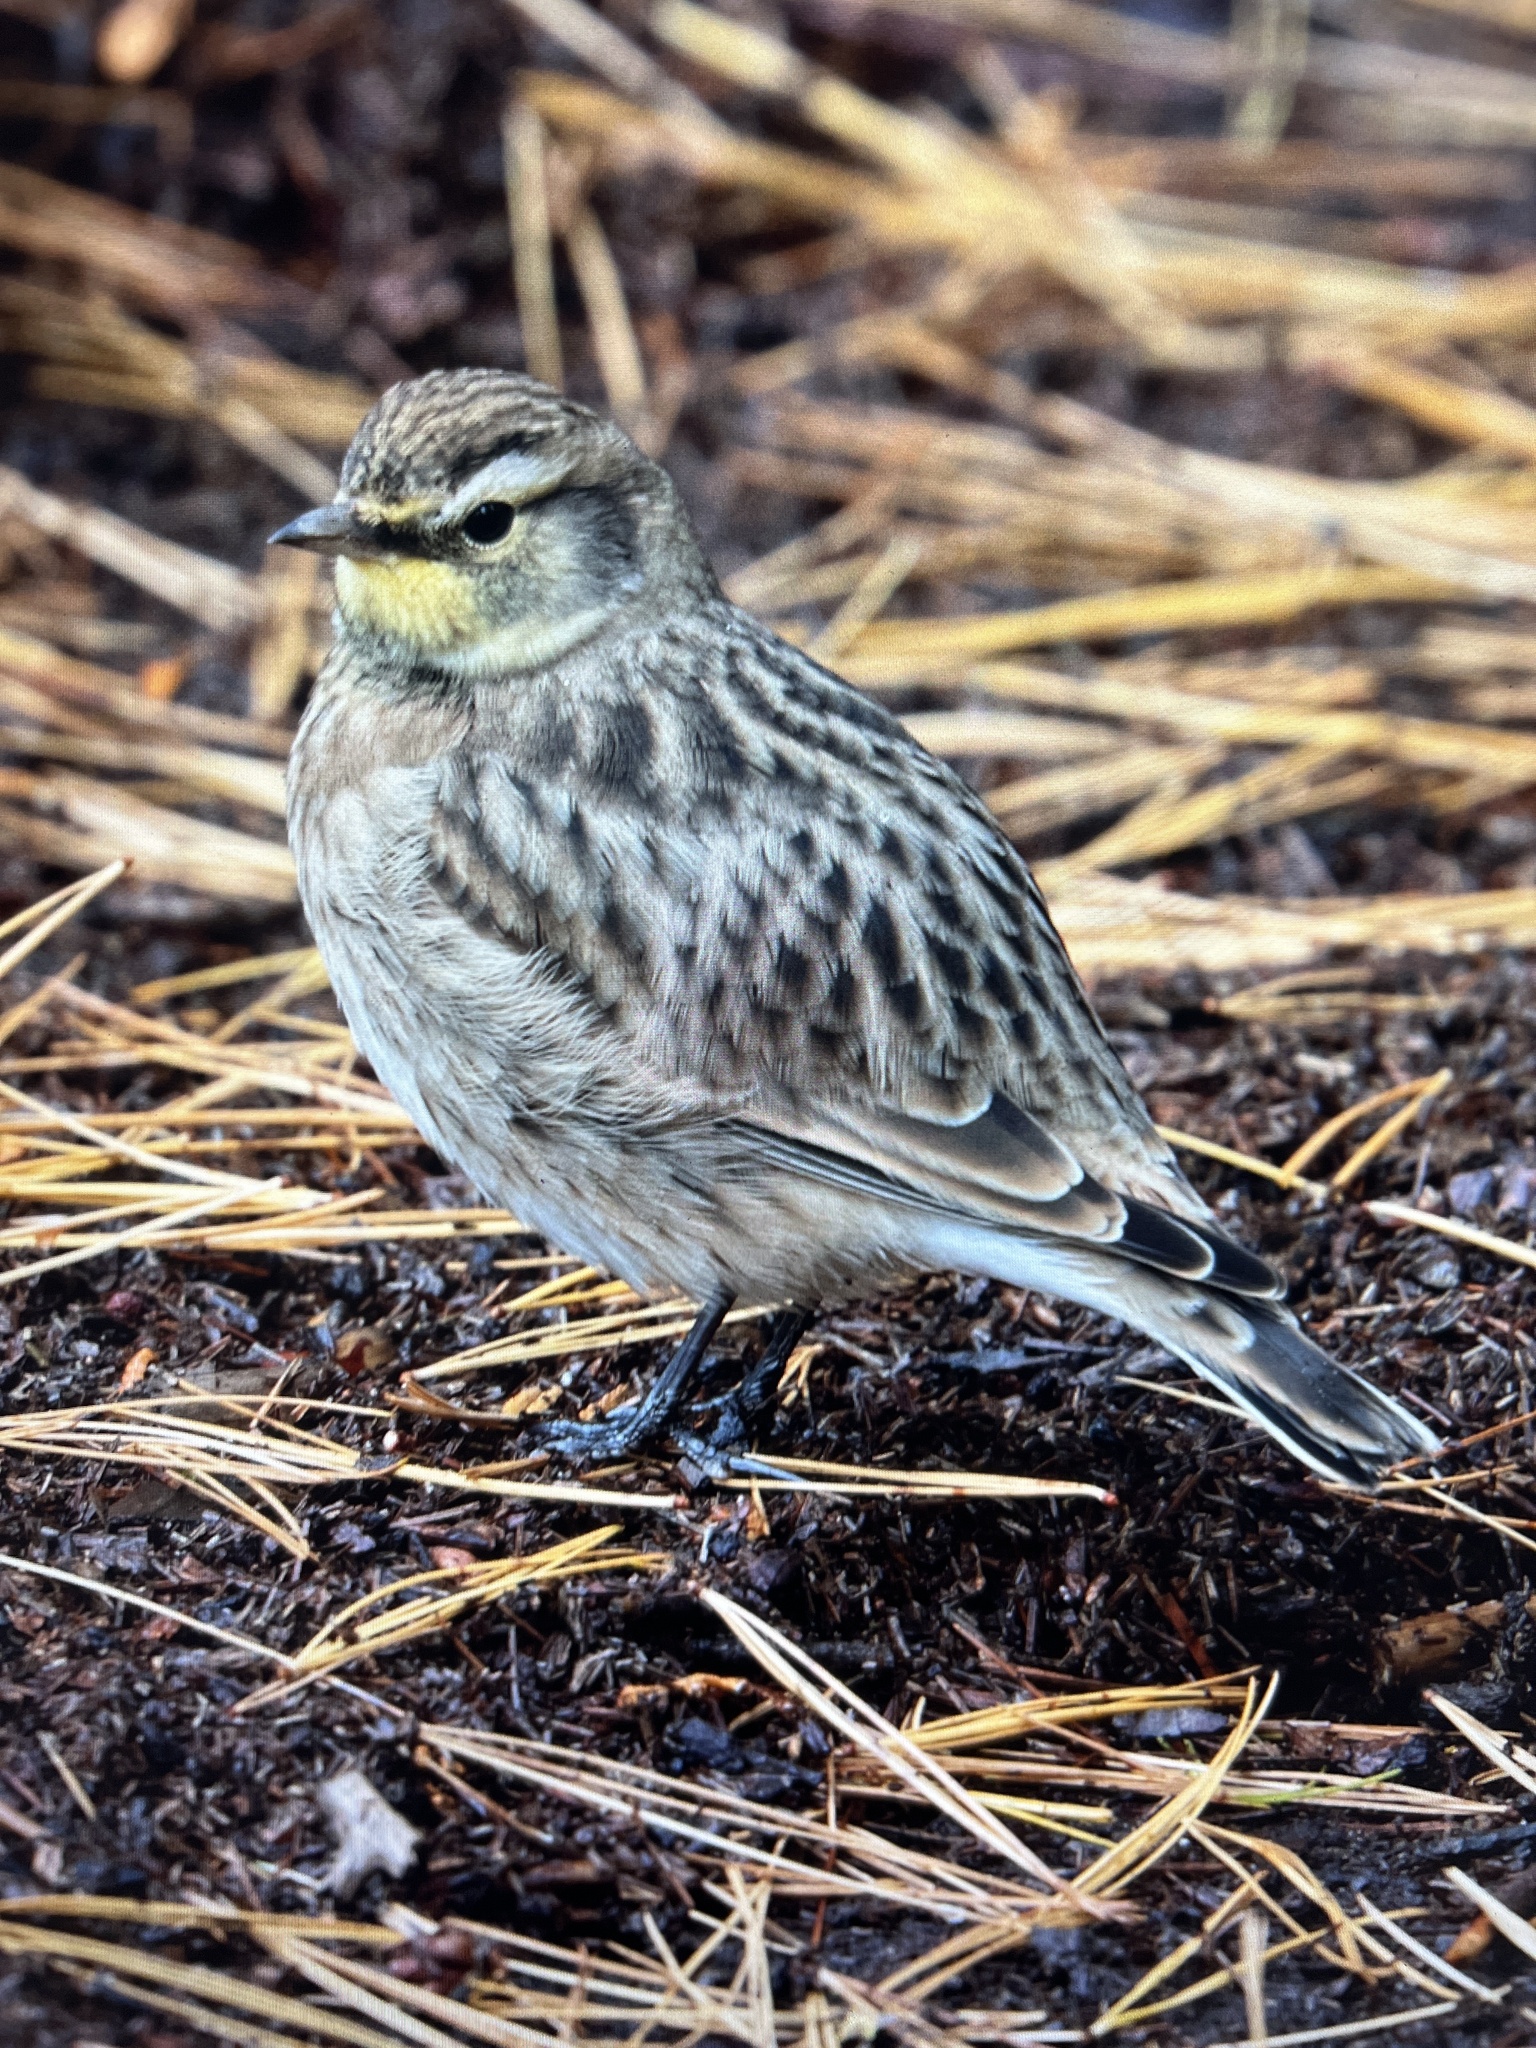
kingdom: Animalia
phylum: Chordata
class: Aves
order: Passeriformes
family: Alaudidae
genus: Eremophila
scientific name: Eremophila alpestris
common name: Horned lark
